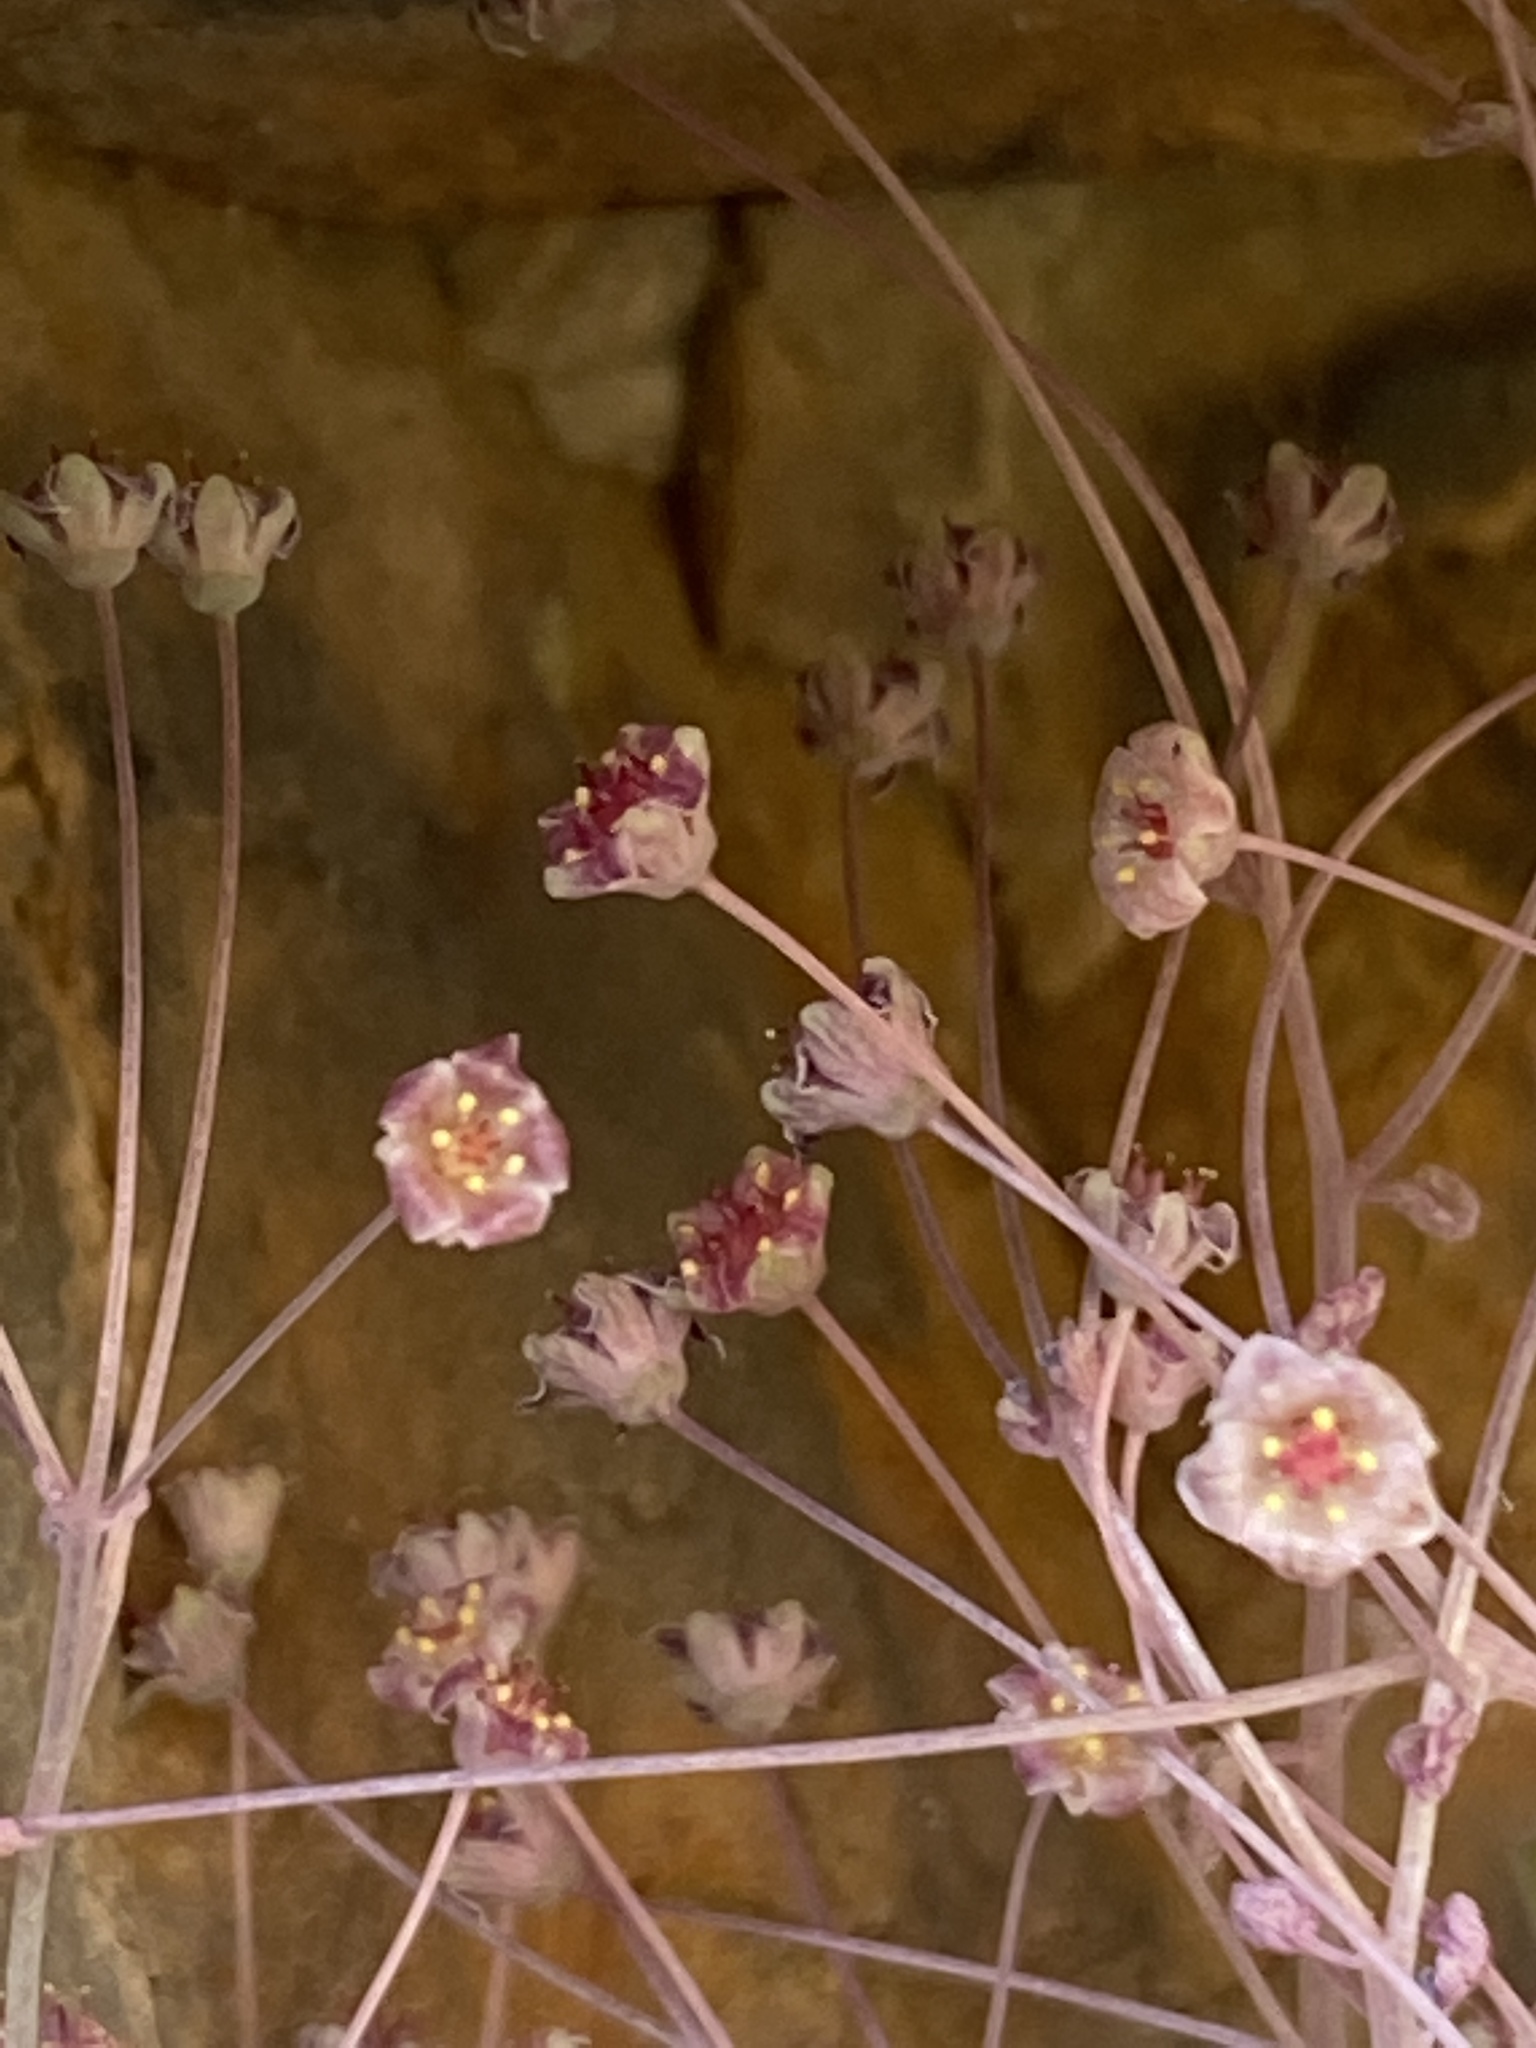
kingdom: Plantae
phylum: Tracheophyta
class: Magnoliopsida
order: Saxifragales
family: Crassulaceae
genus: Crassula
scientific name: Crassula nemorosa
